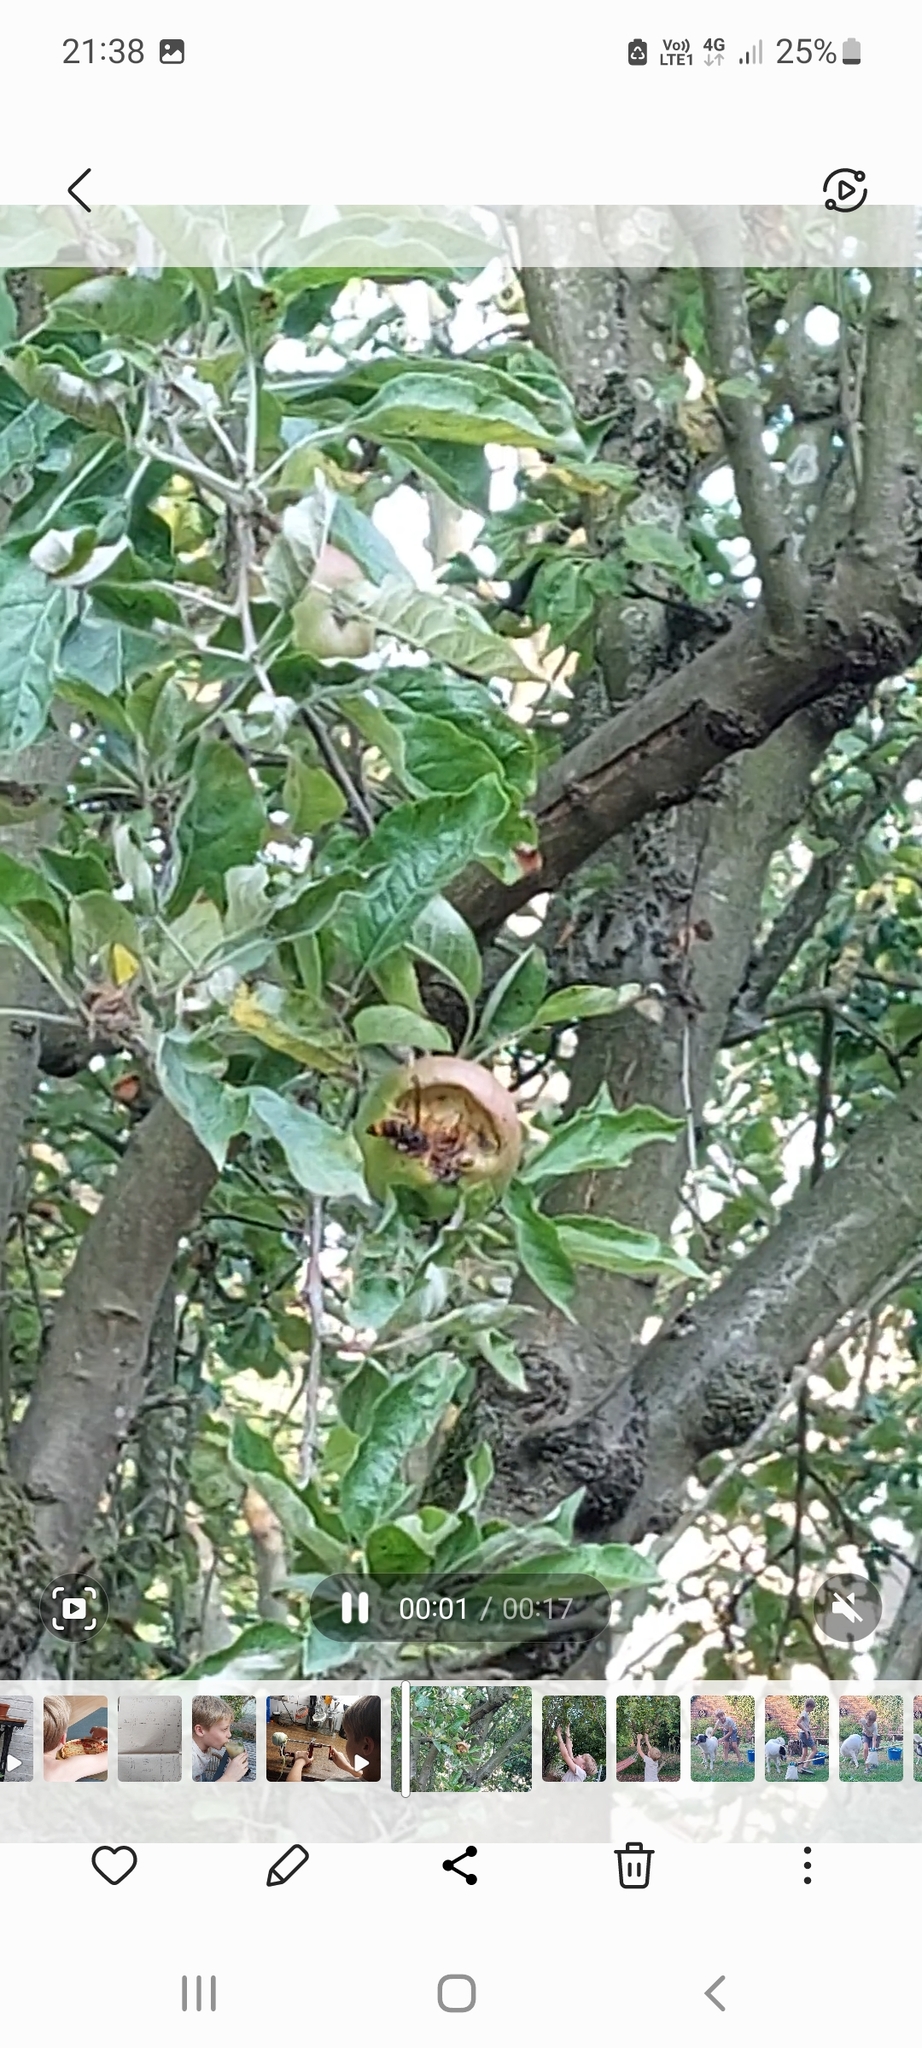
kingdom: Animalia
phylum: Arthropoda
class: Insecta
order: Hymenoptera
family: Vespidae
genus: Vespa
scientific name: Vespa velutina
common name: Asian hornet
